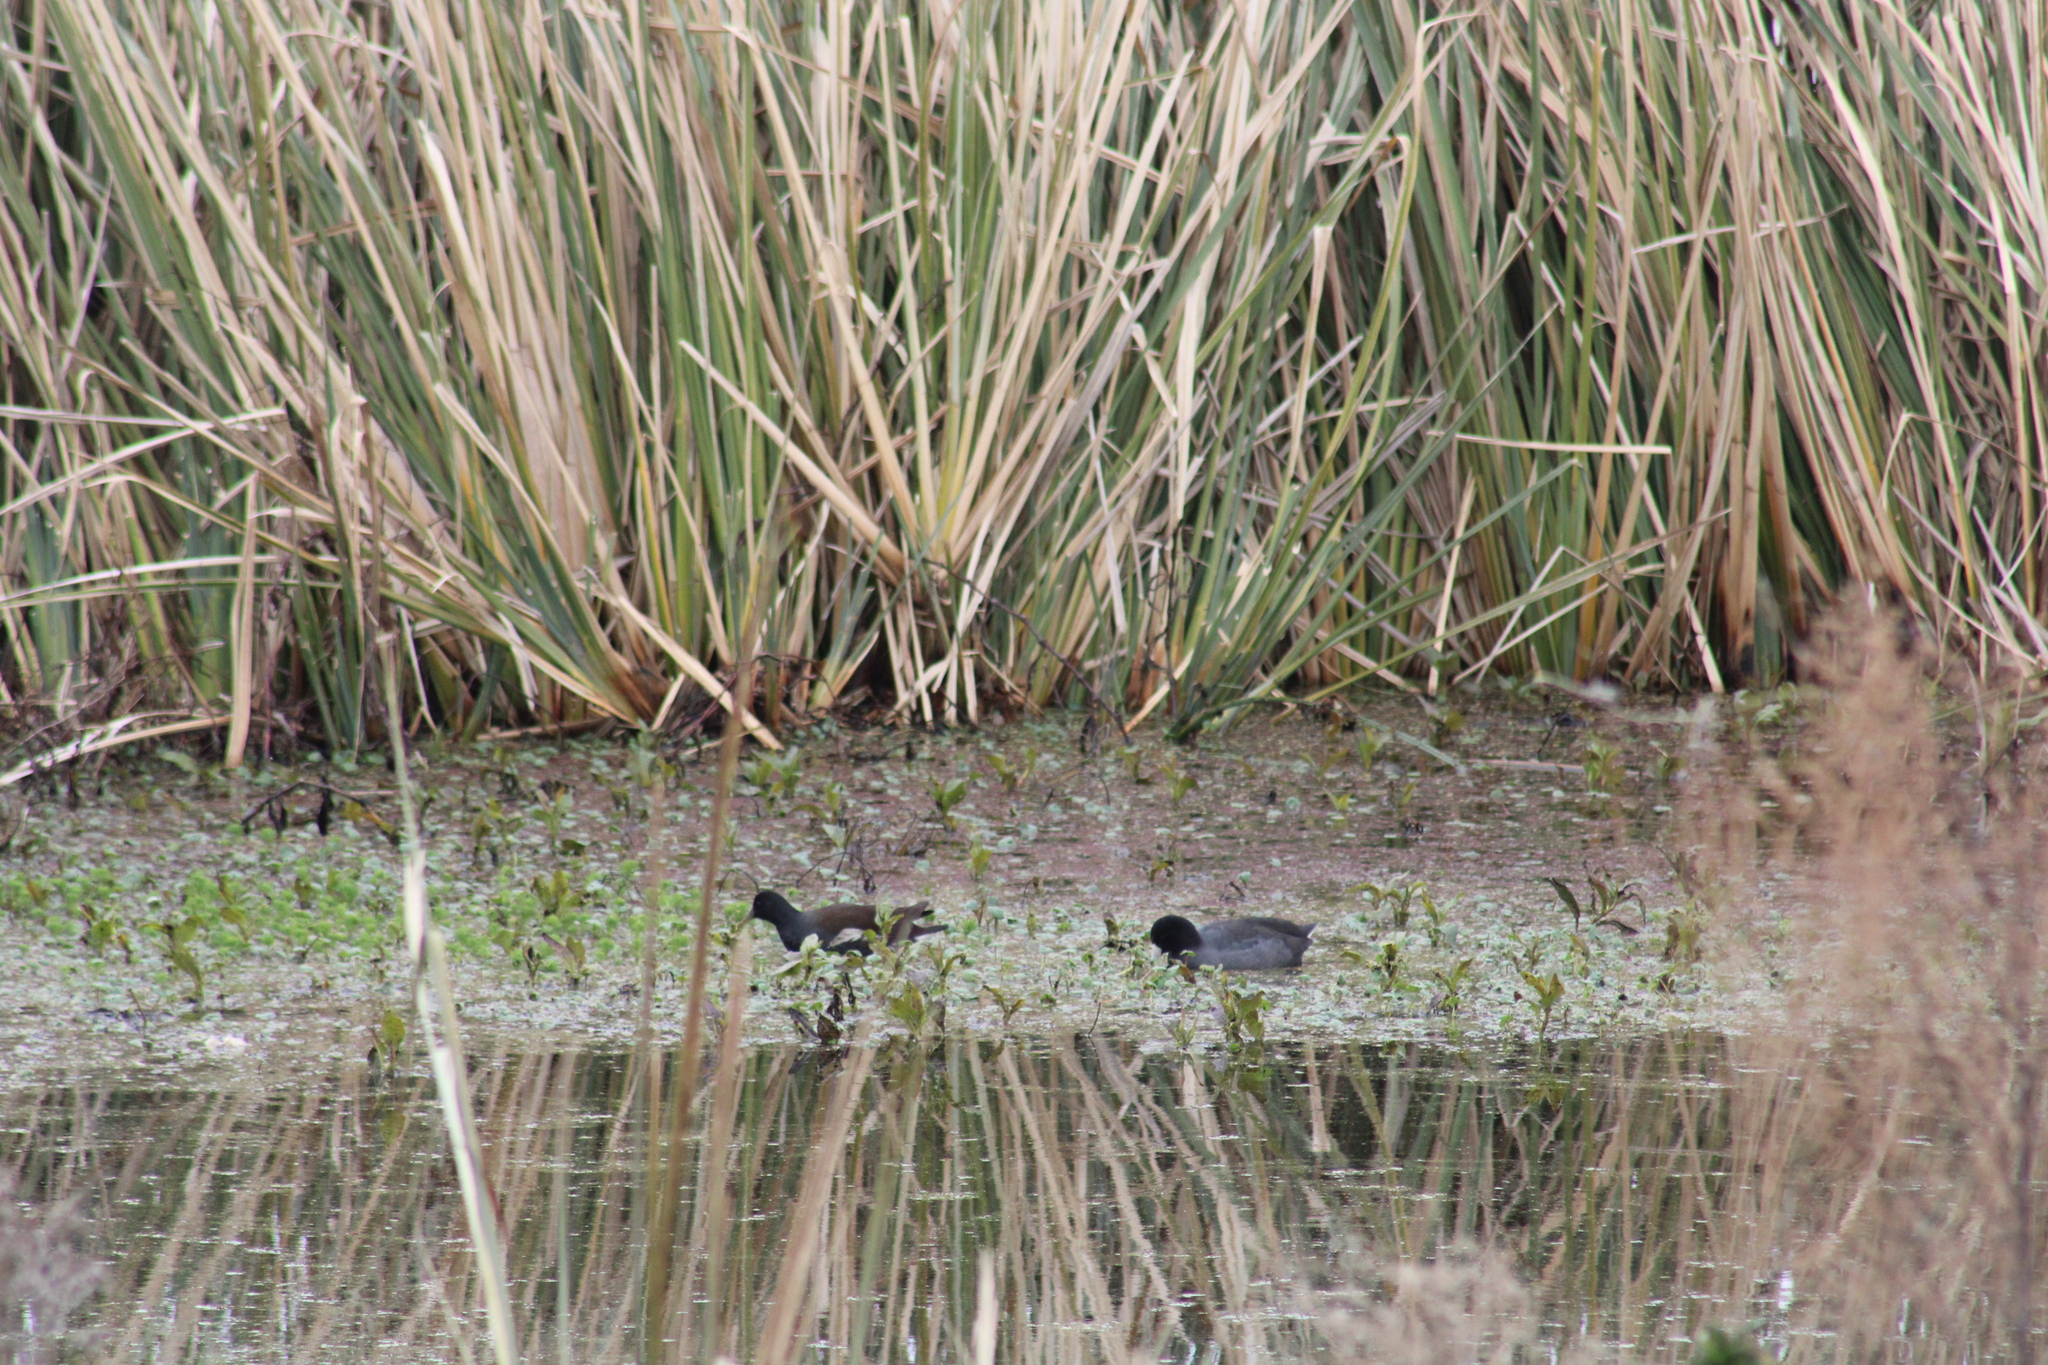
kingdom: Animalia
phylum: Chordata
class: Aves
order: Gruiformes
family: Rallidae
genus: Fulica
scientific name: Fulica americana
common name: American coot
